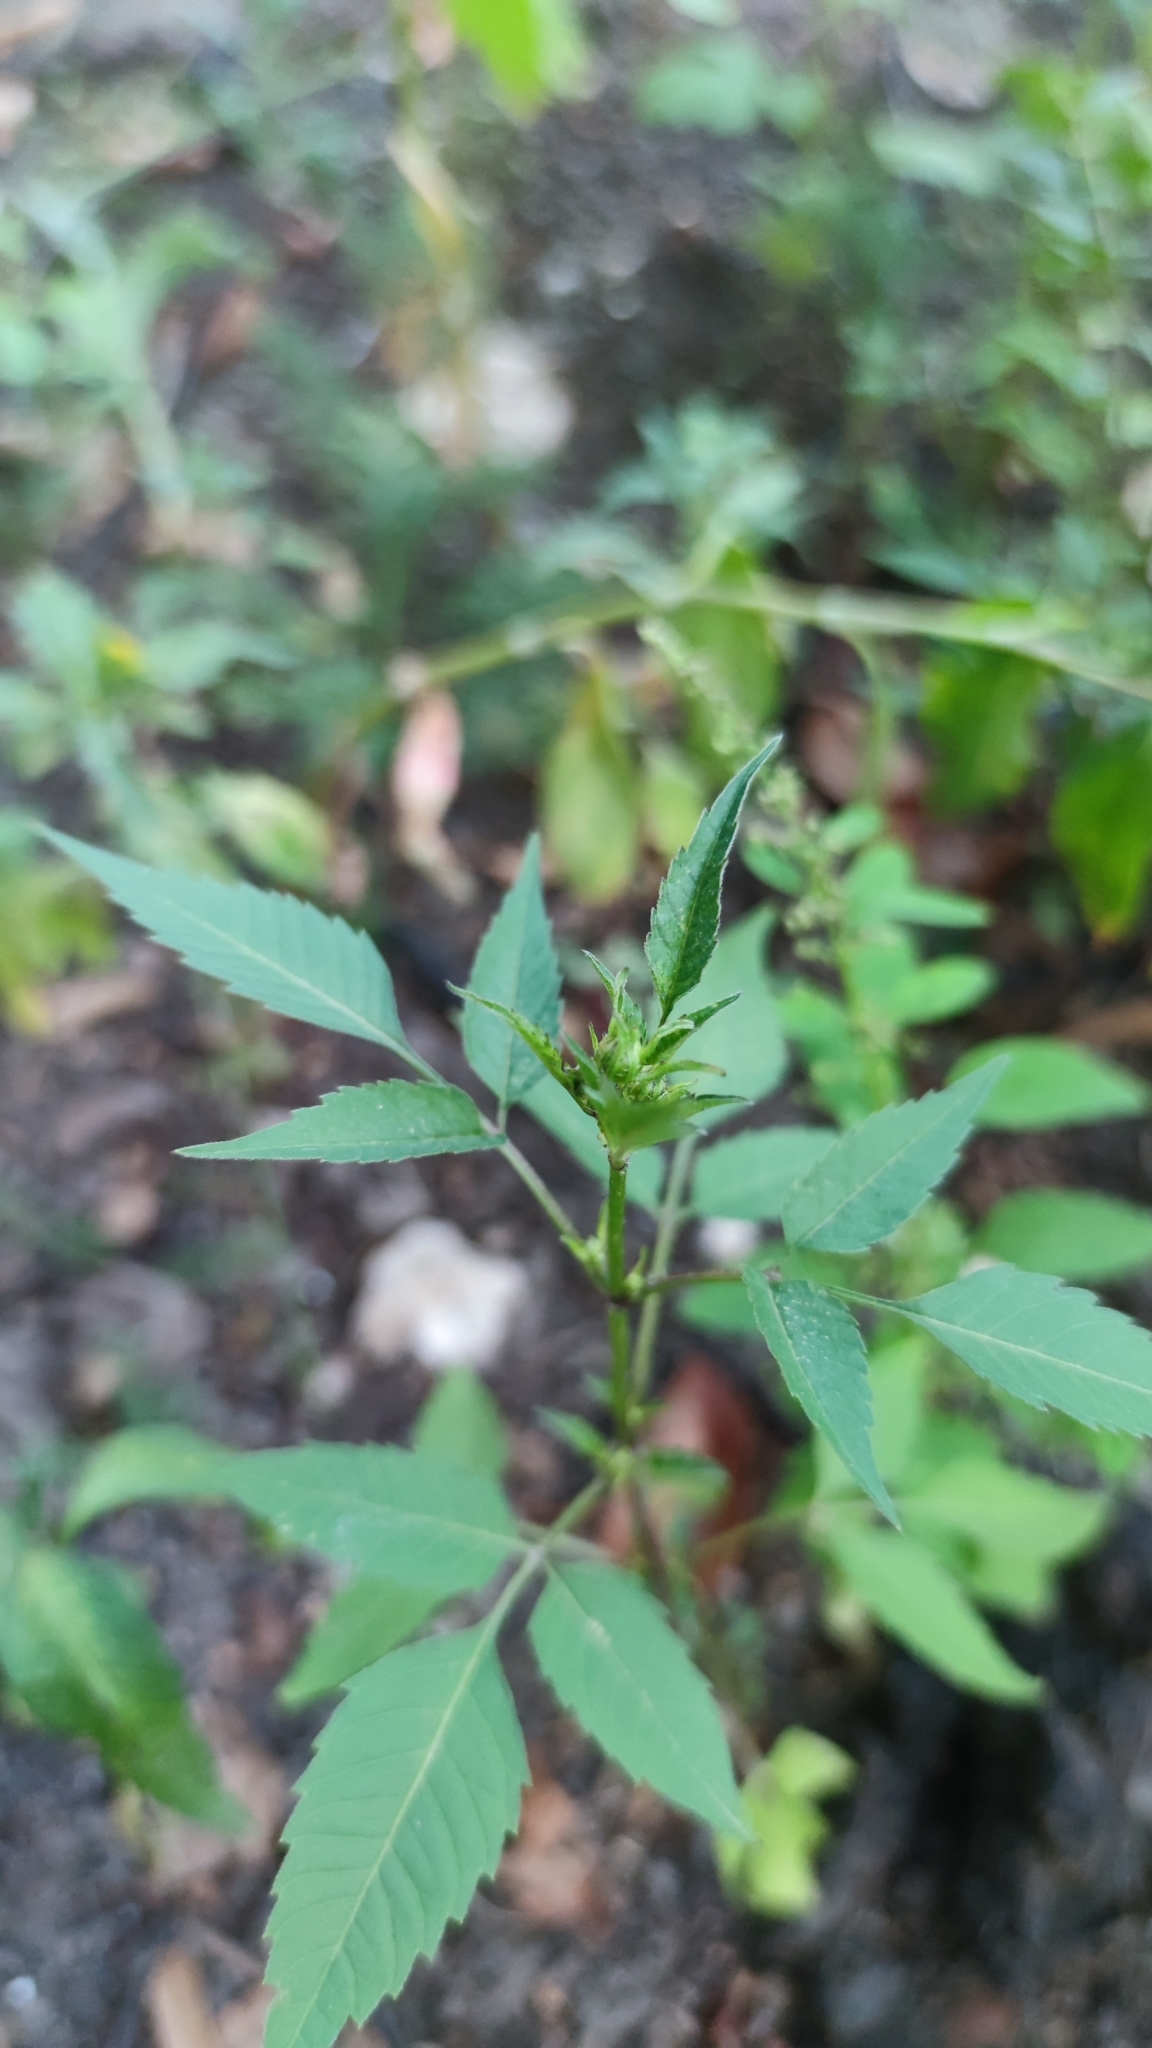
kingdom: Plantae
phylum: Tracheophyta
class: Magnoliopsida
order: Asterales
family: Asteraceae
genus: Bidens
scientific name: Bidens frondosa
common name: Beggarticks
